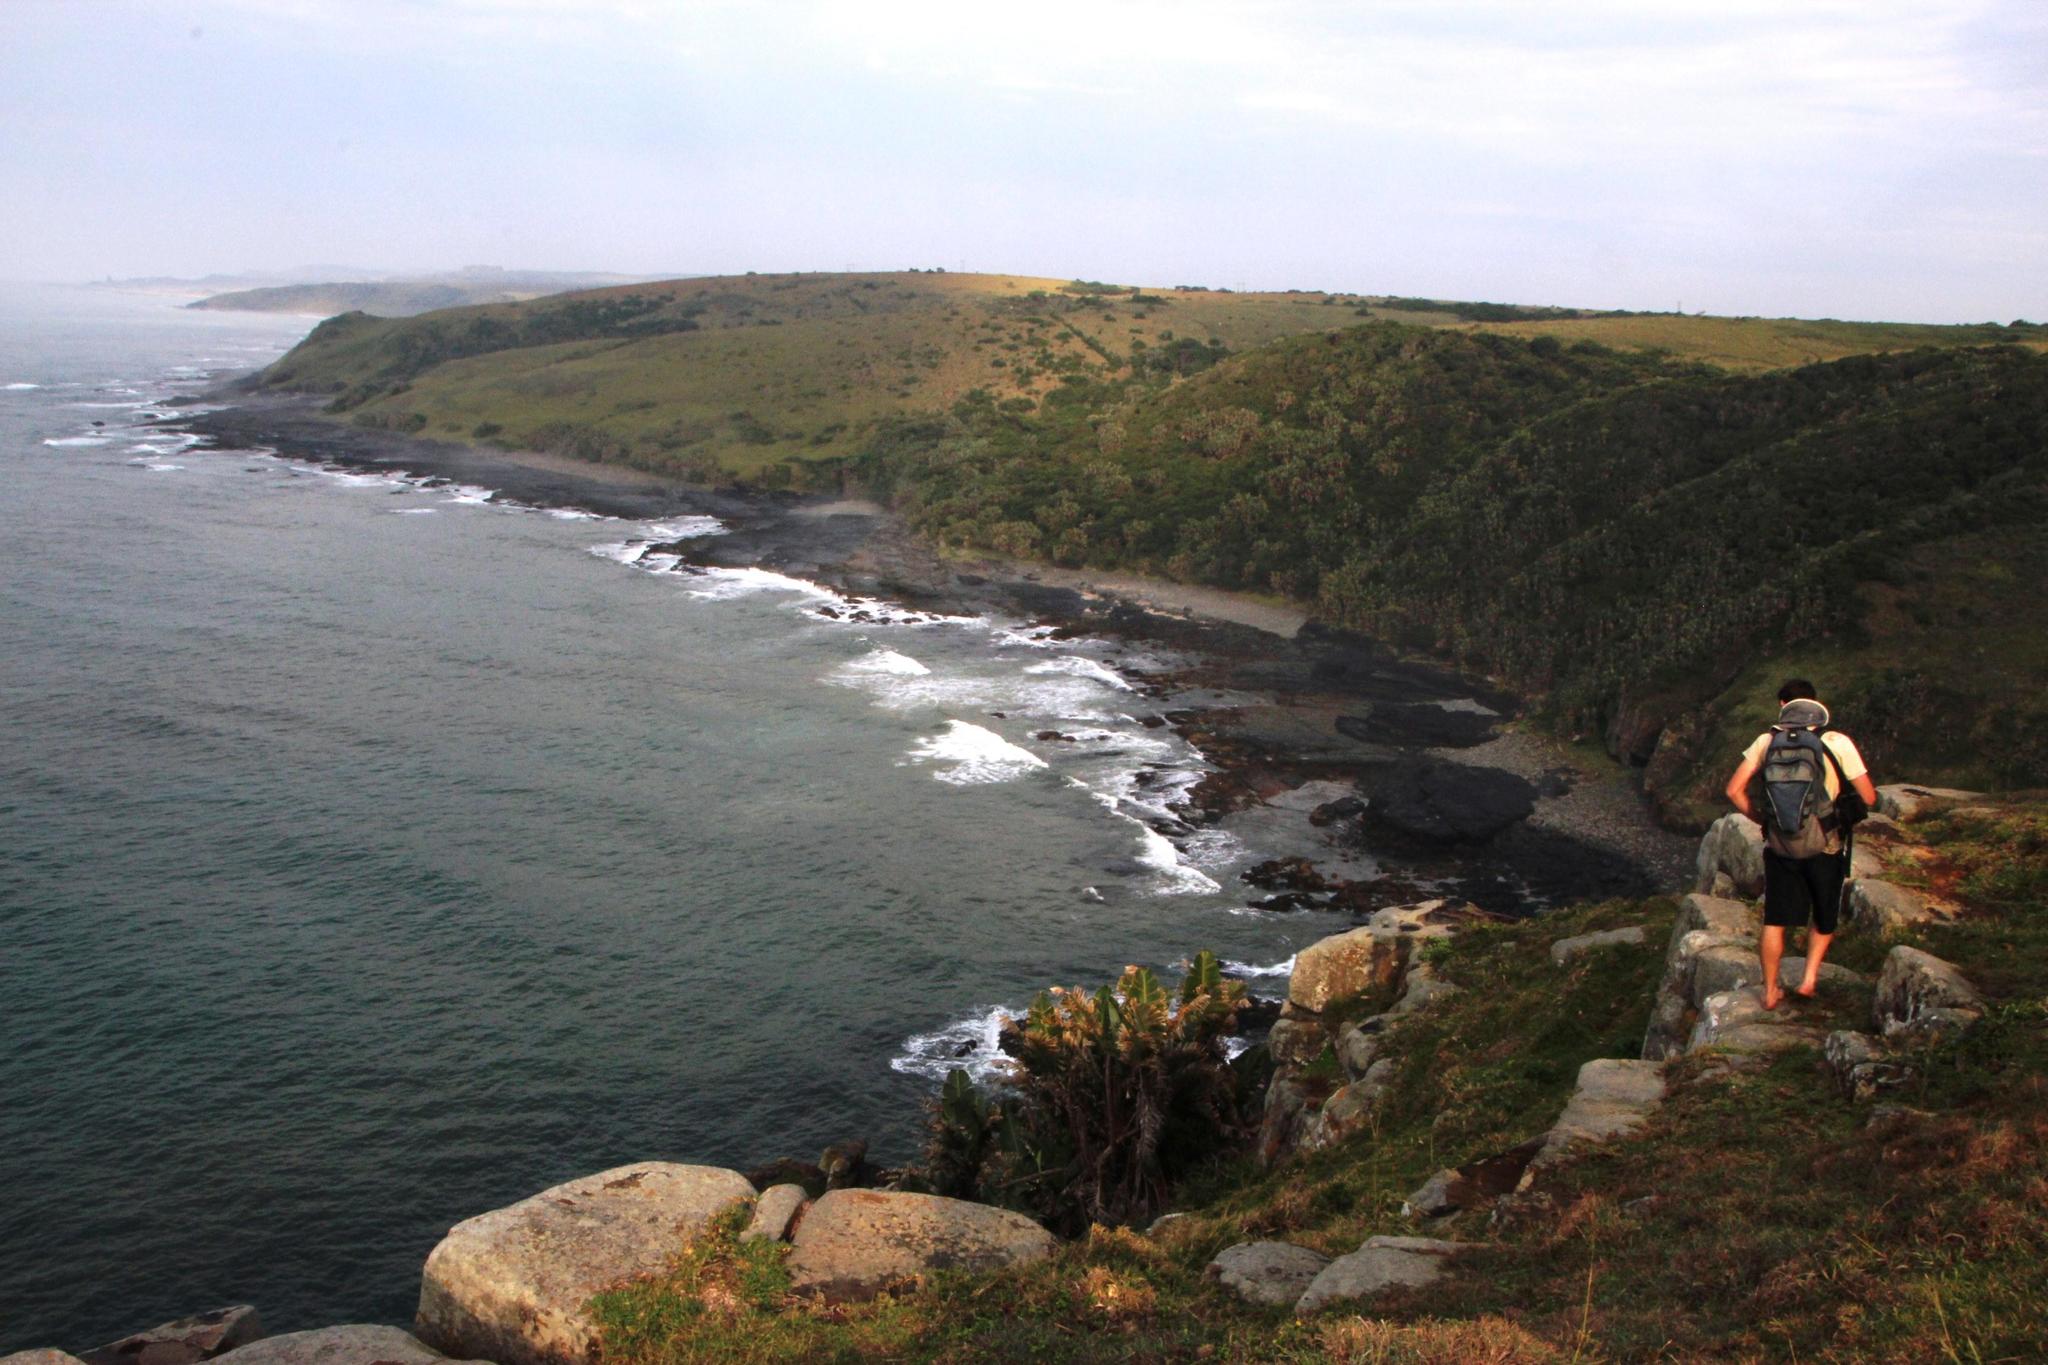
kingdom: Plantae
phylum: Tracheophyta
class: Liliopsida
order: Zingiberales
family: Strelitziaceae
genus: Strelitzia
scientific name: Strelitzia nicolai
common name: Bird-of-paradise tree
